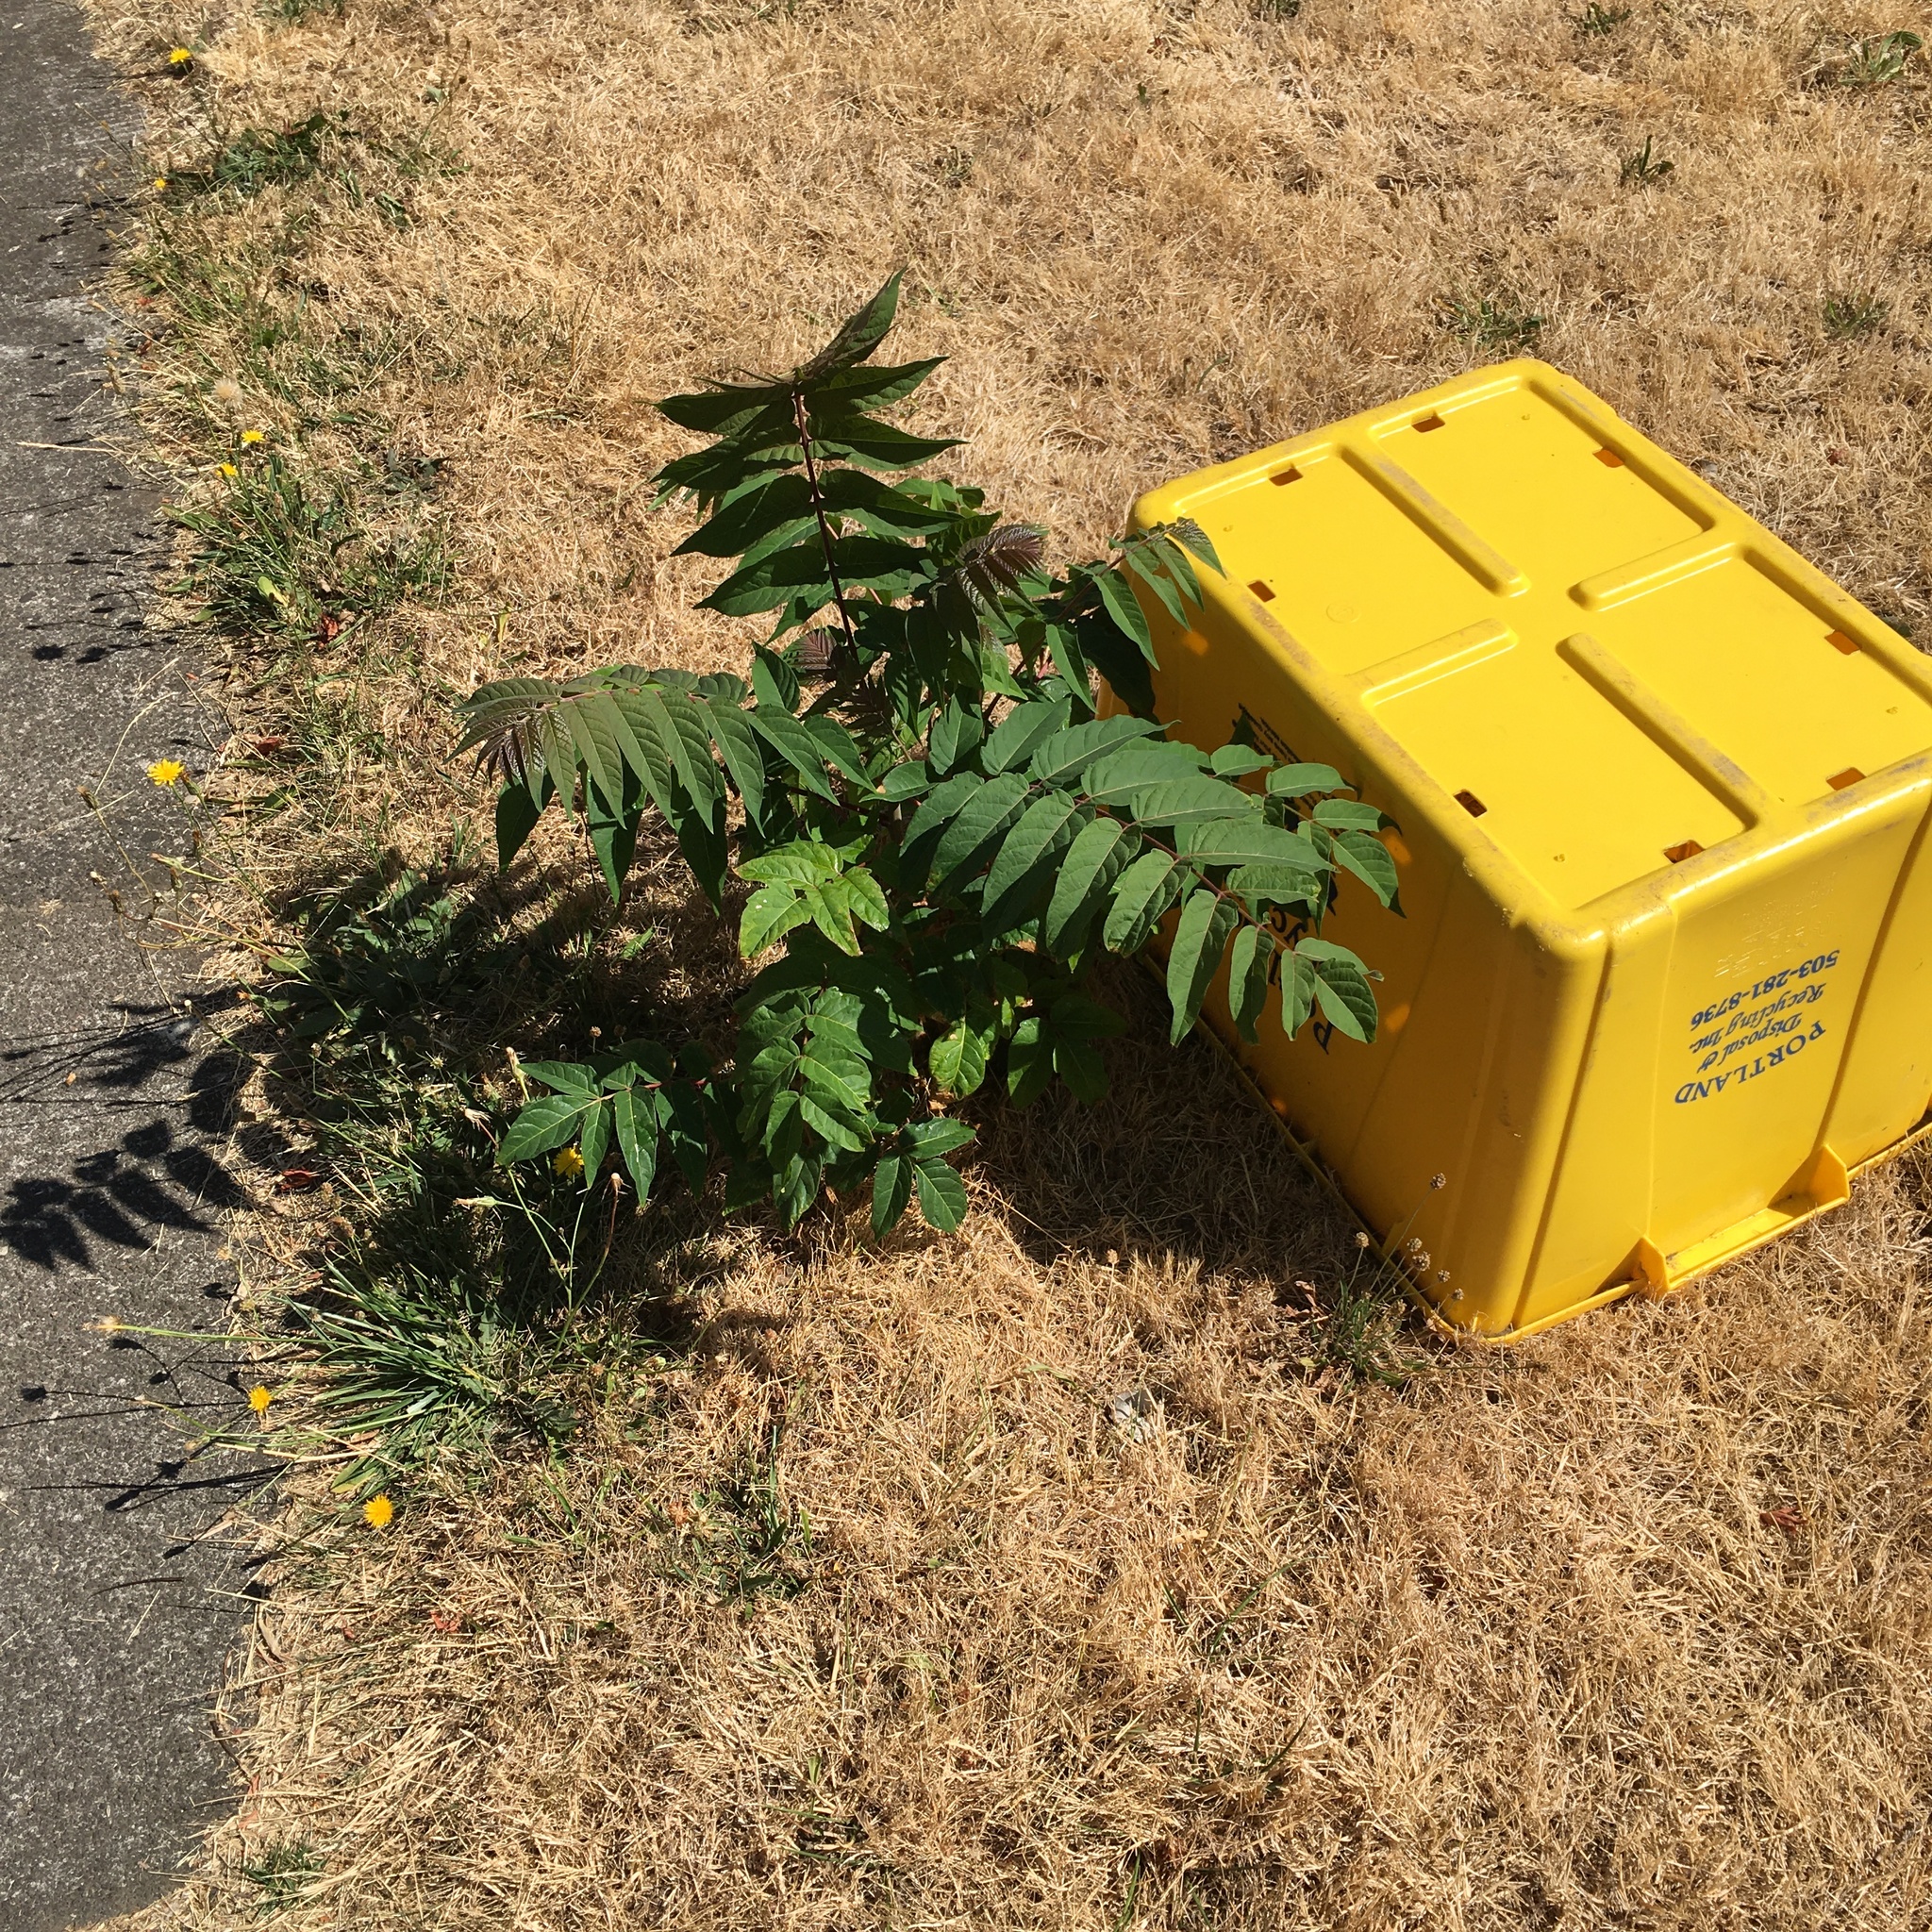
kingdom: Plantae
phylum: Tracheophyta
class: Magnoliopsida
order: Sapindales
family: Simaroubaceae
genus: Ailanthus
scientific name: Ailanthus altissima
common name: Tree-of-heaven
